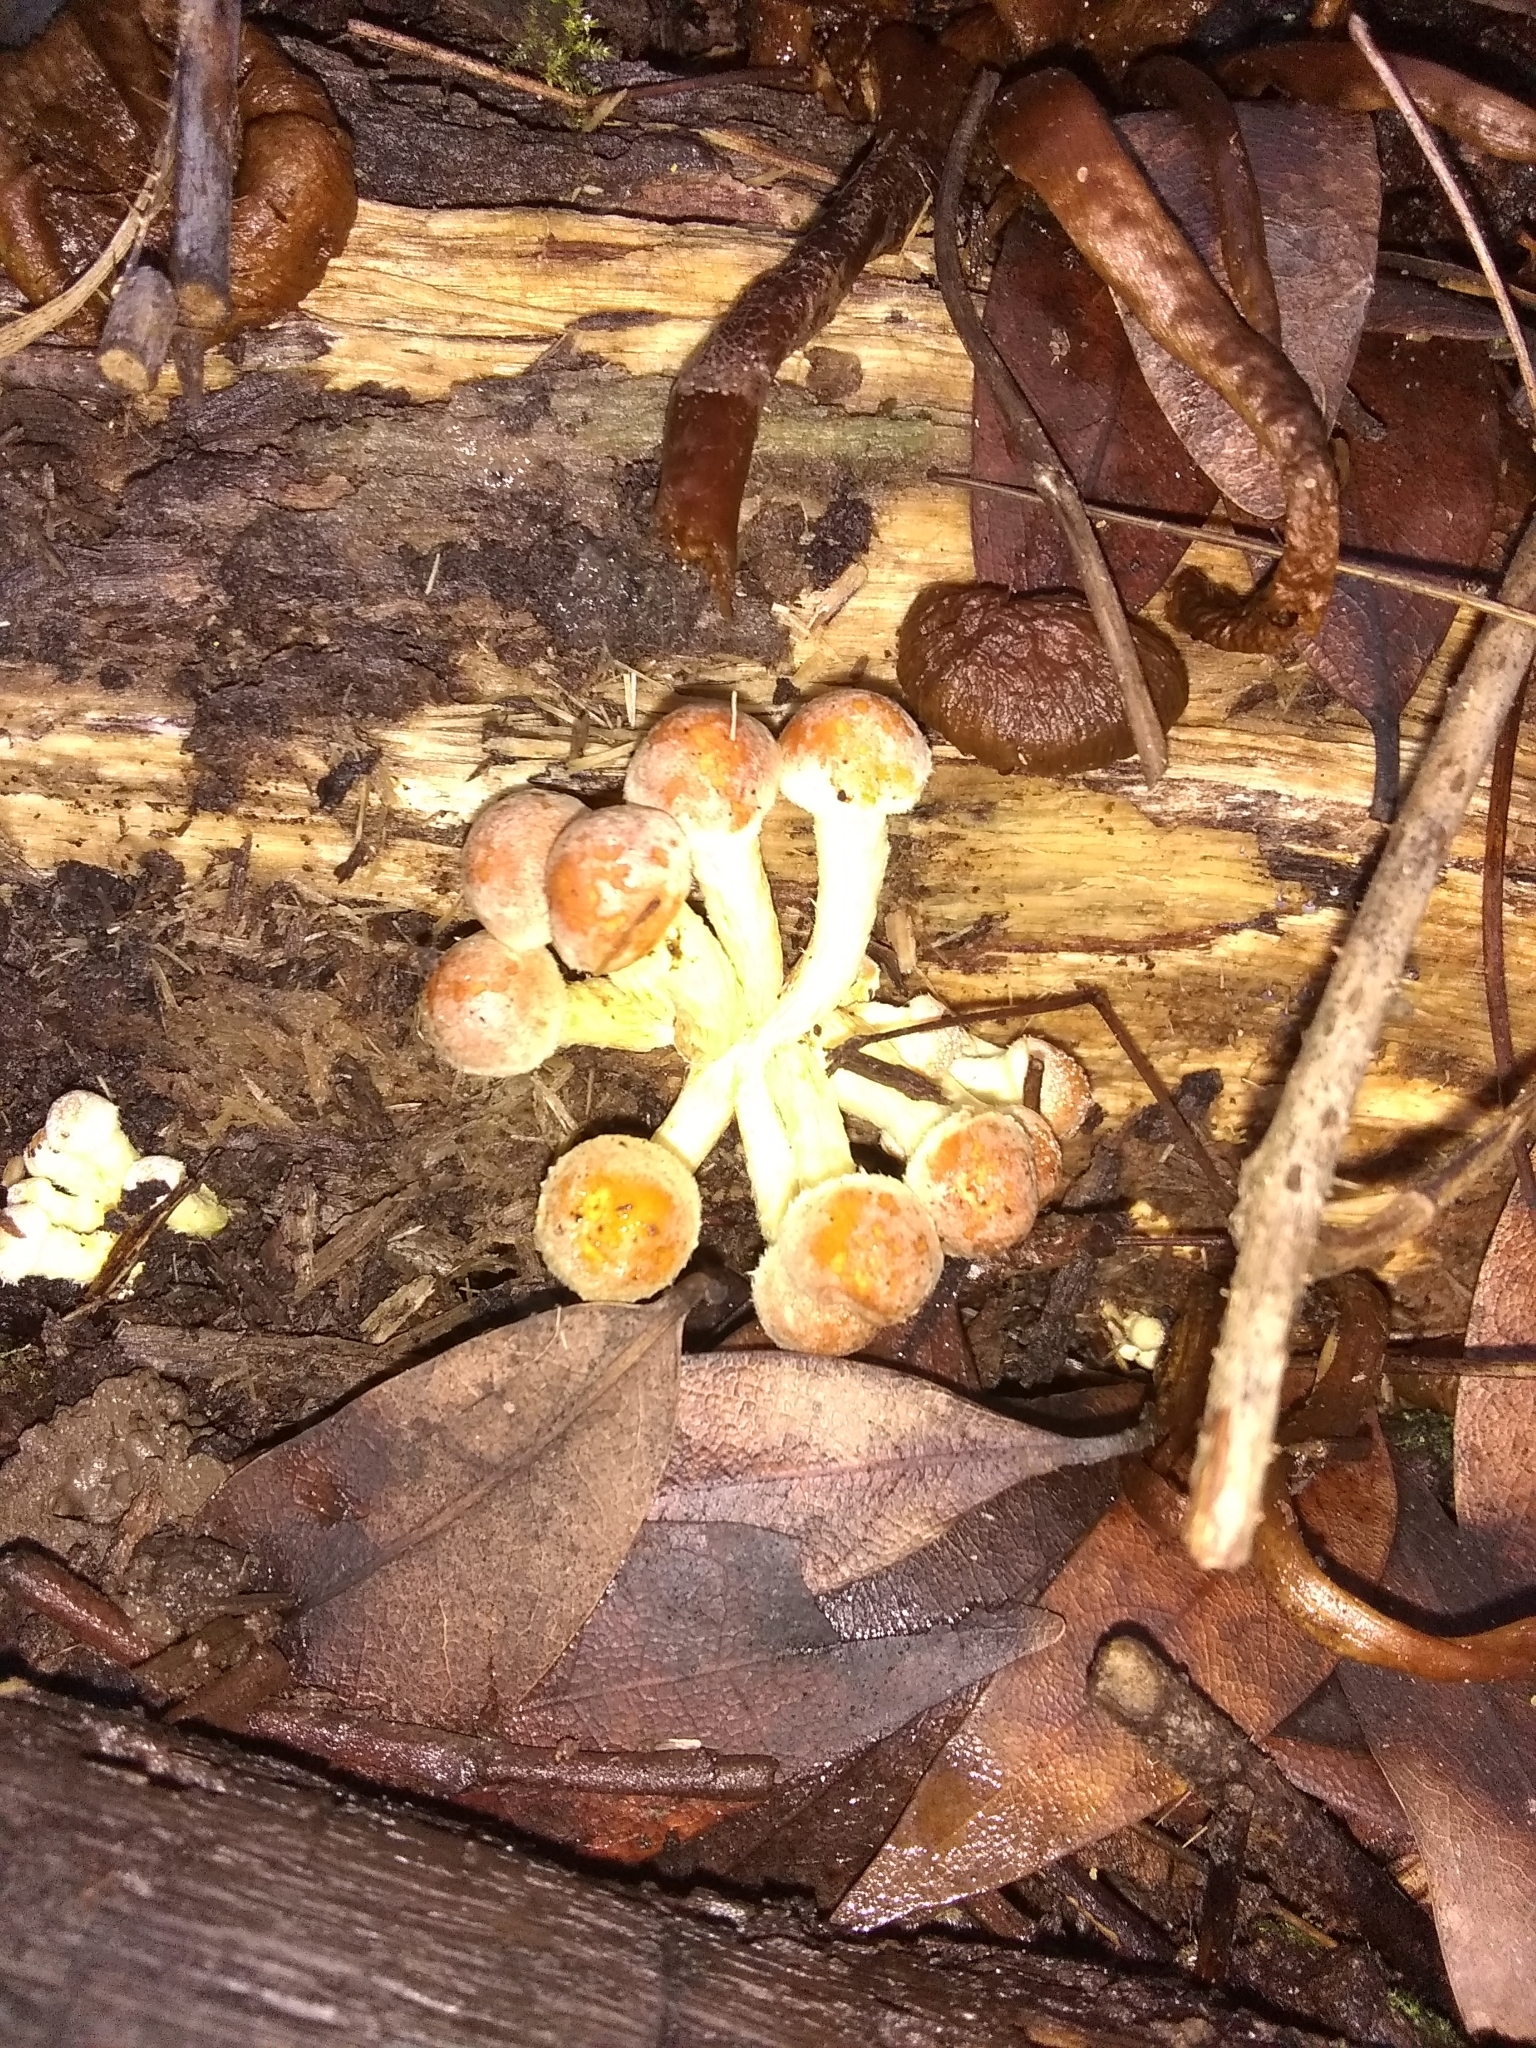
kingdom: Fungi
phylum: Basidiomycota
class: Agaricomycetes
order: Agaricales
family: Strophariaceae
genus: Hypholoma
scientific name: Hypholoma fasciculare
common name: Sulphur tuft
